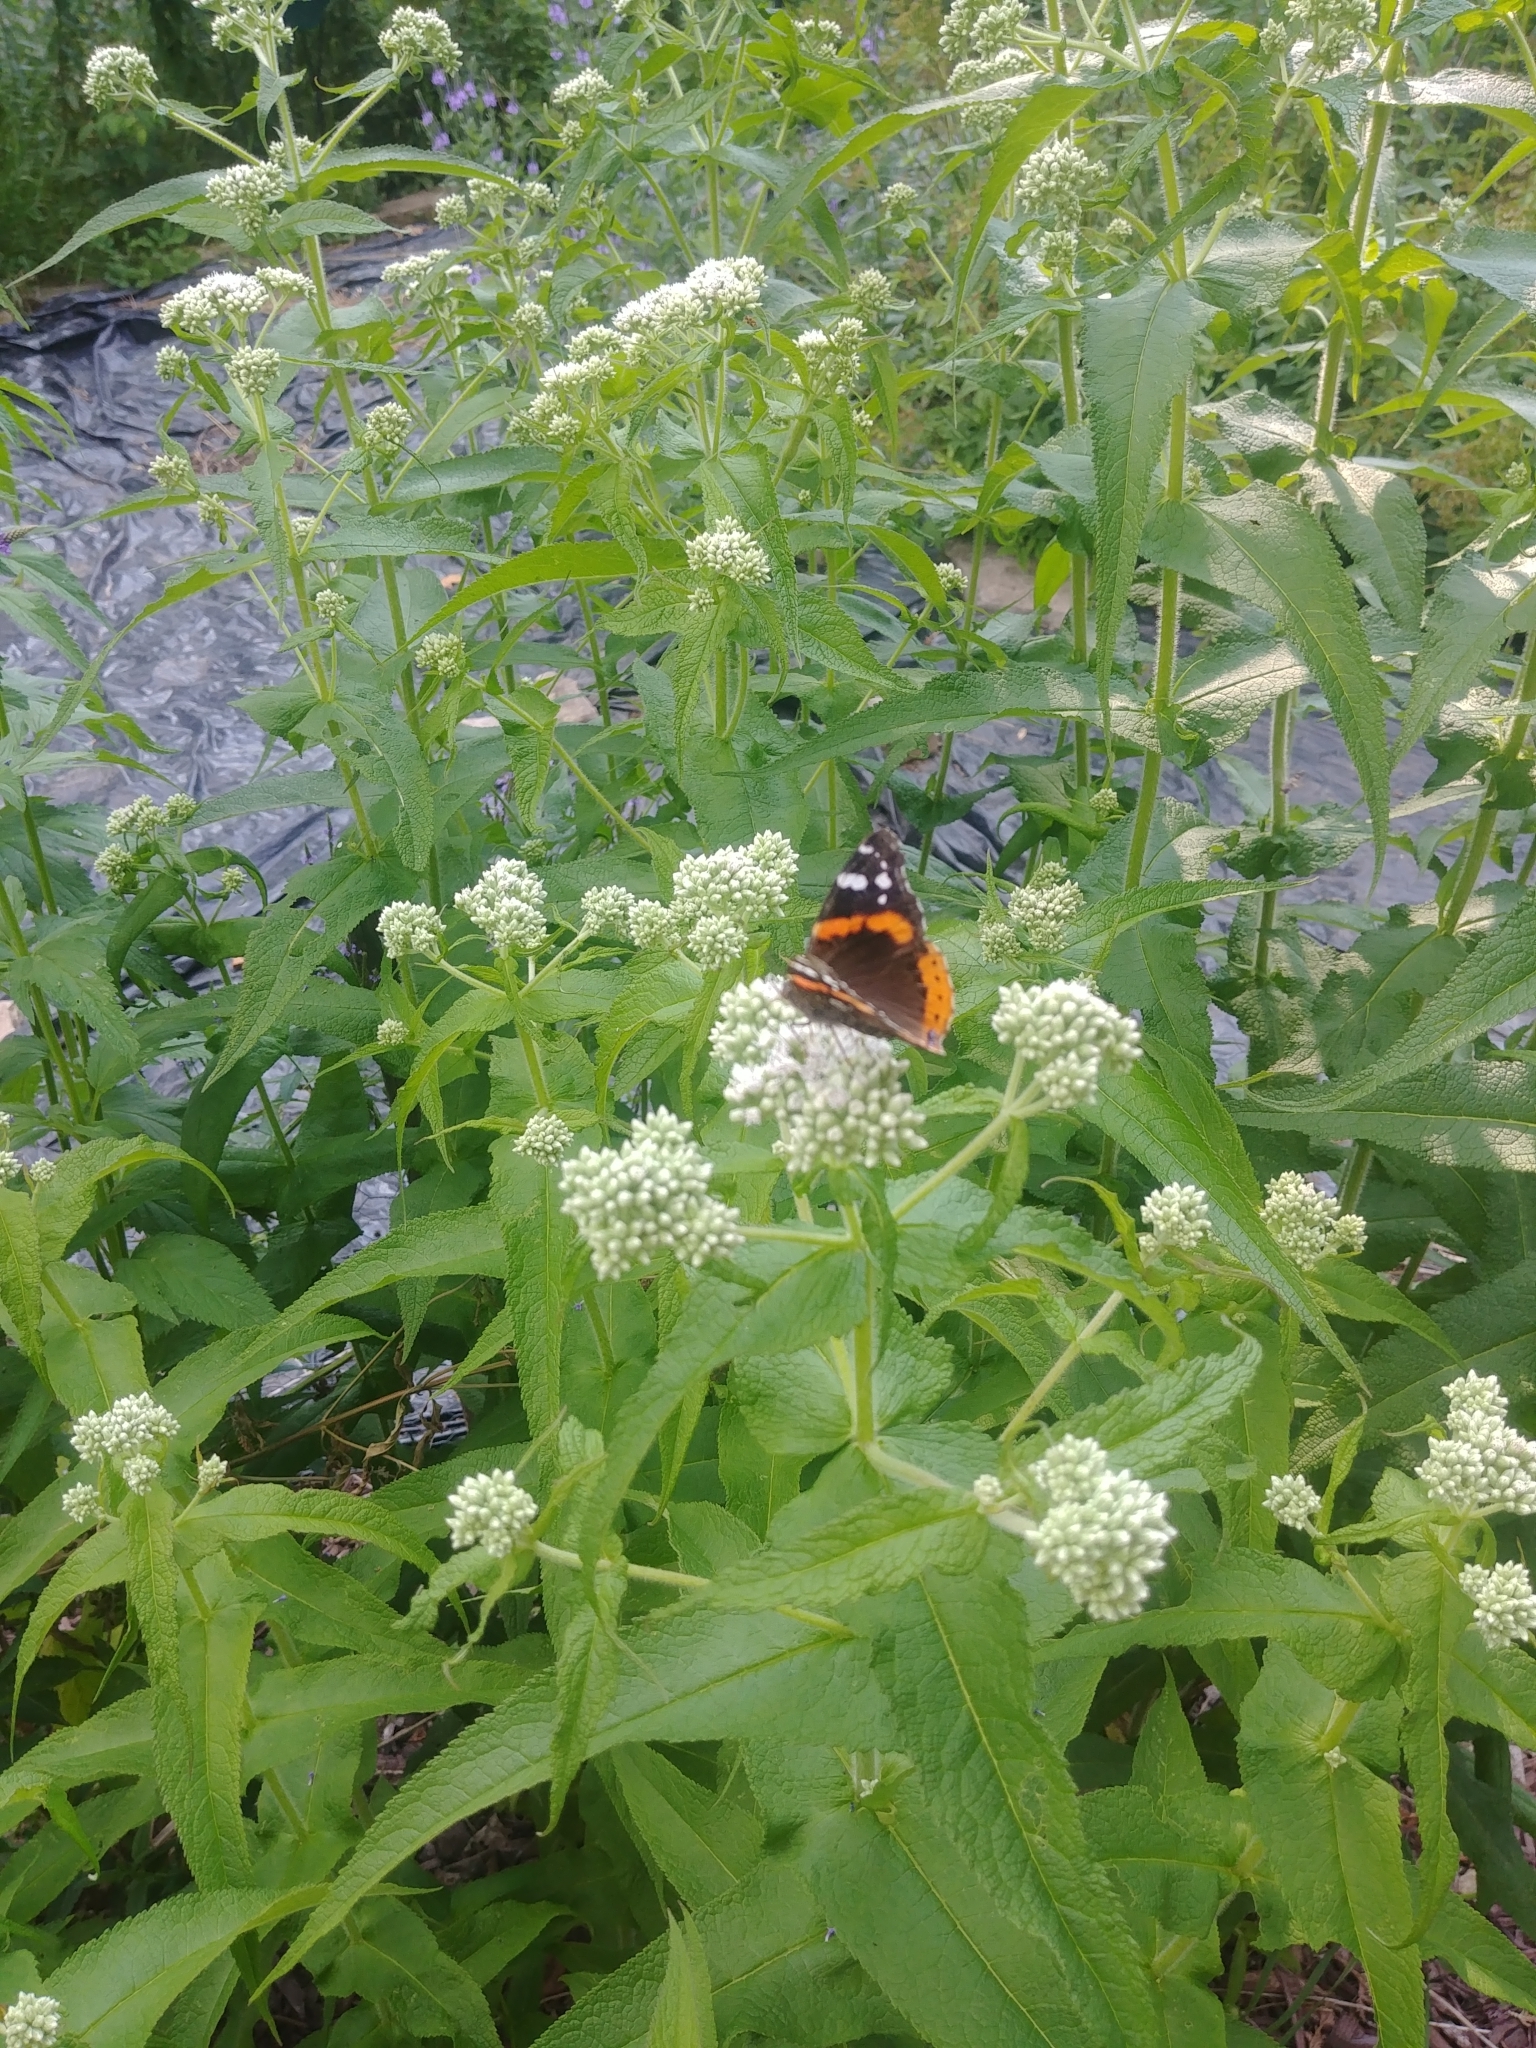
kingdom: Animalia
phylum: Arthropoda
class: Insecta
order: Lepidoptera
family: Nymphalidae
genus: Vanessa
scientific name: Vanessa atalanta
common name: Red admiral
